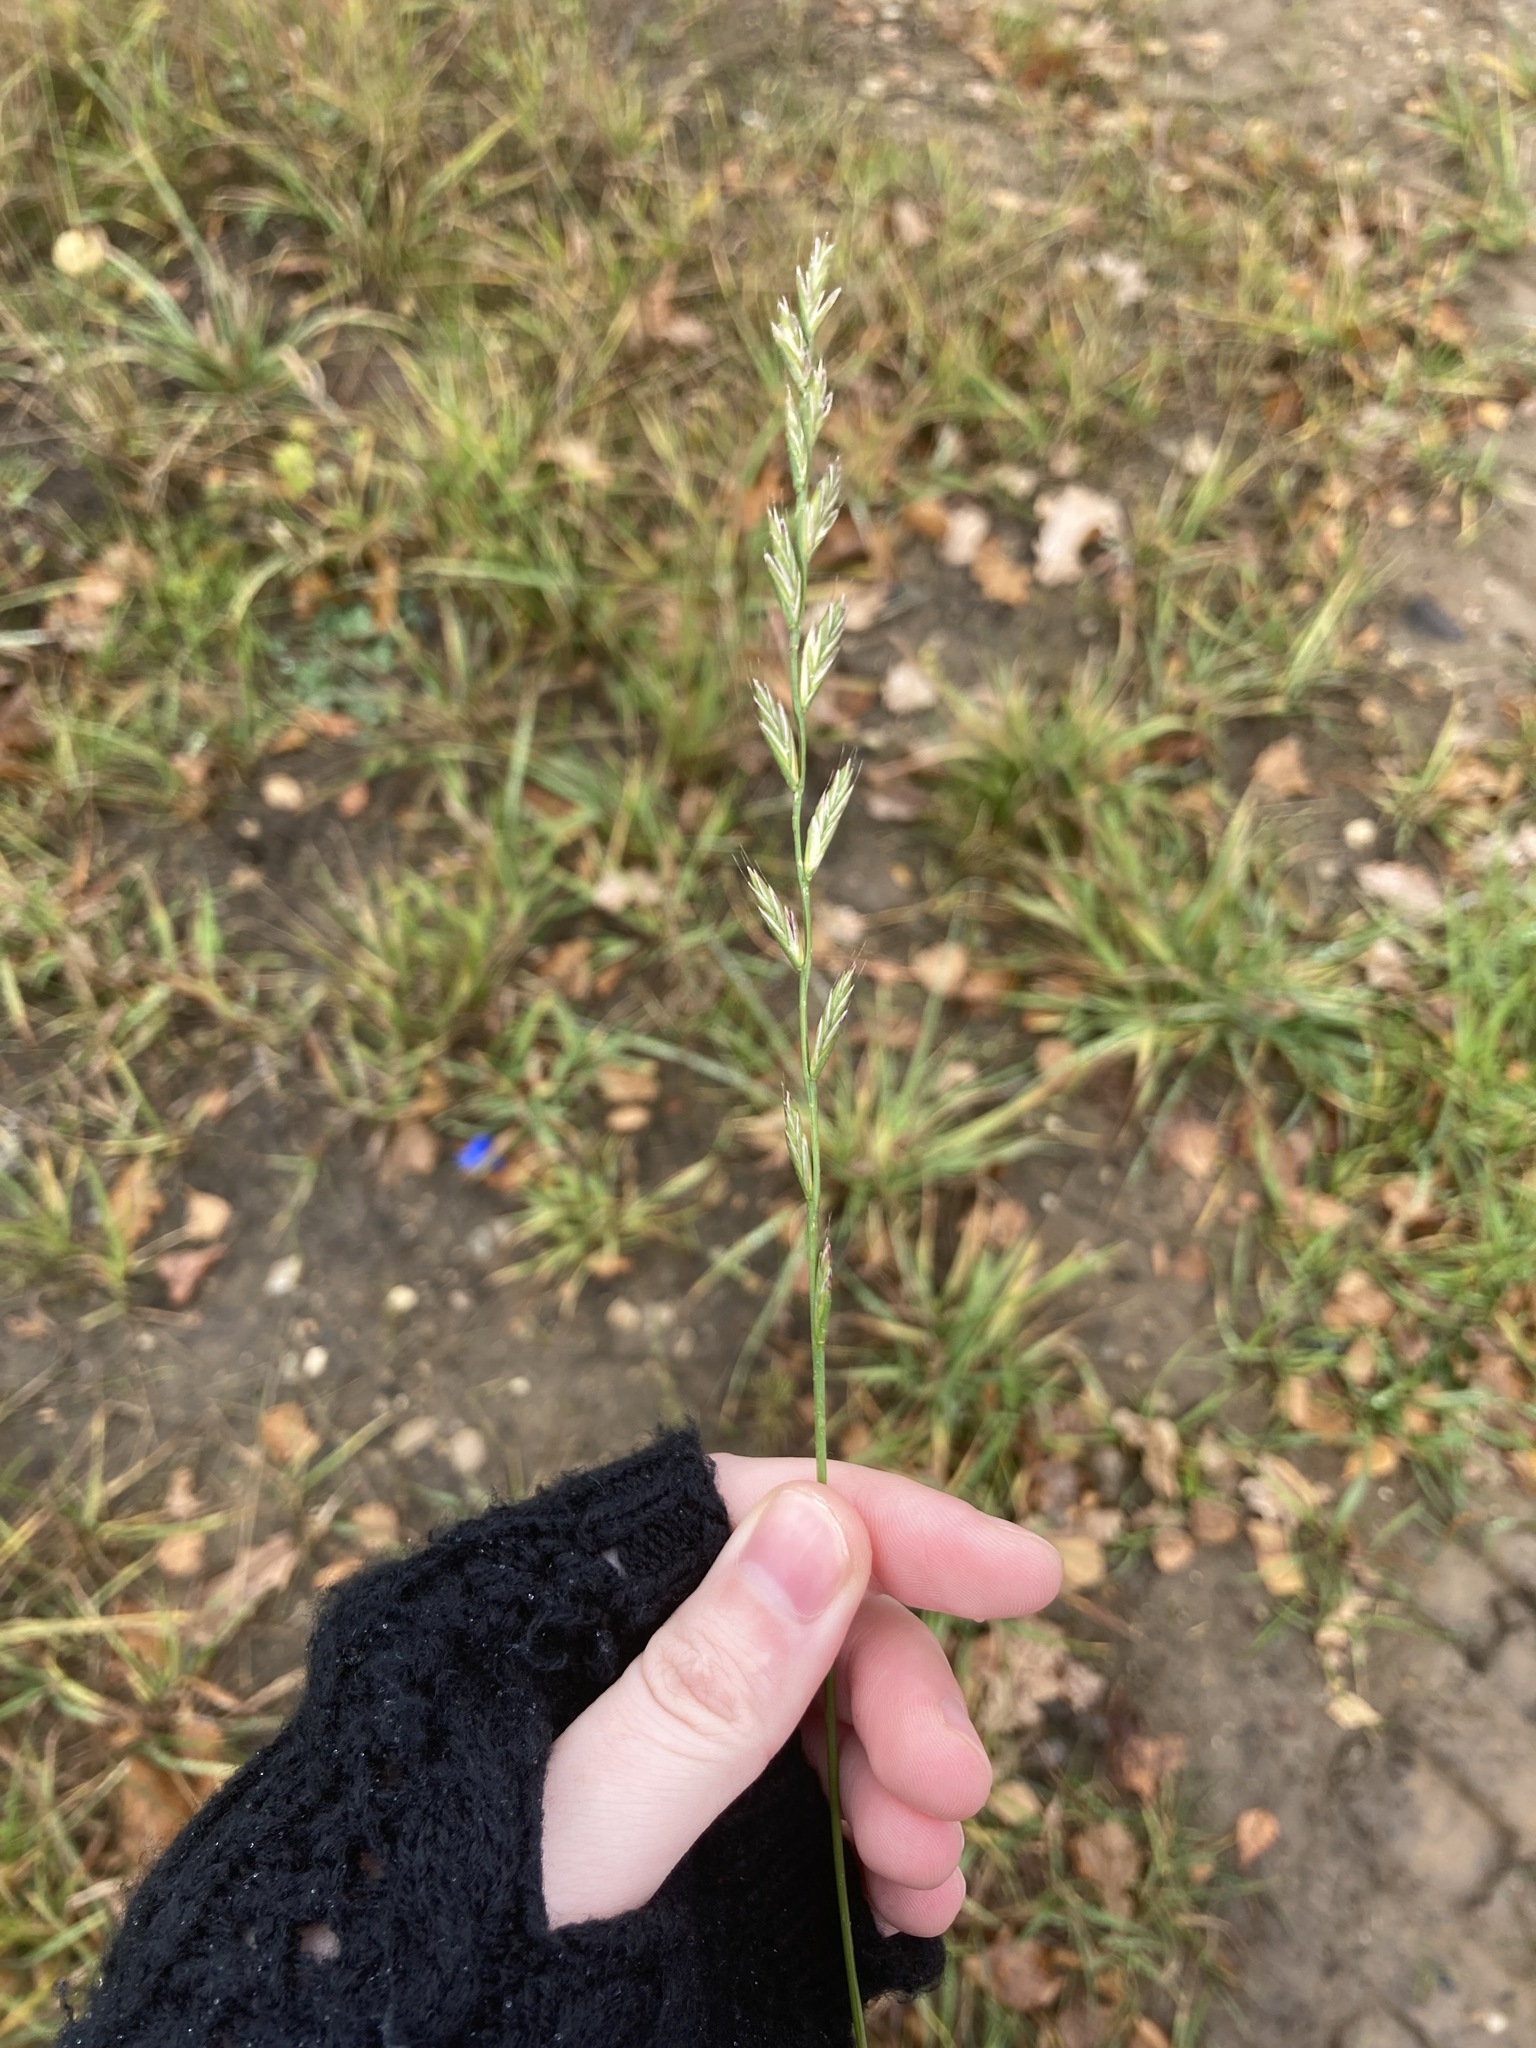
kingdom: Plantae
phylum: Tracheophyta
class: Liliopsida
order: Poales
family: Poaceae
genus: Lolium
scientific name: Lolium multiflorum
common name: Annual ryegrass
